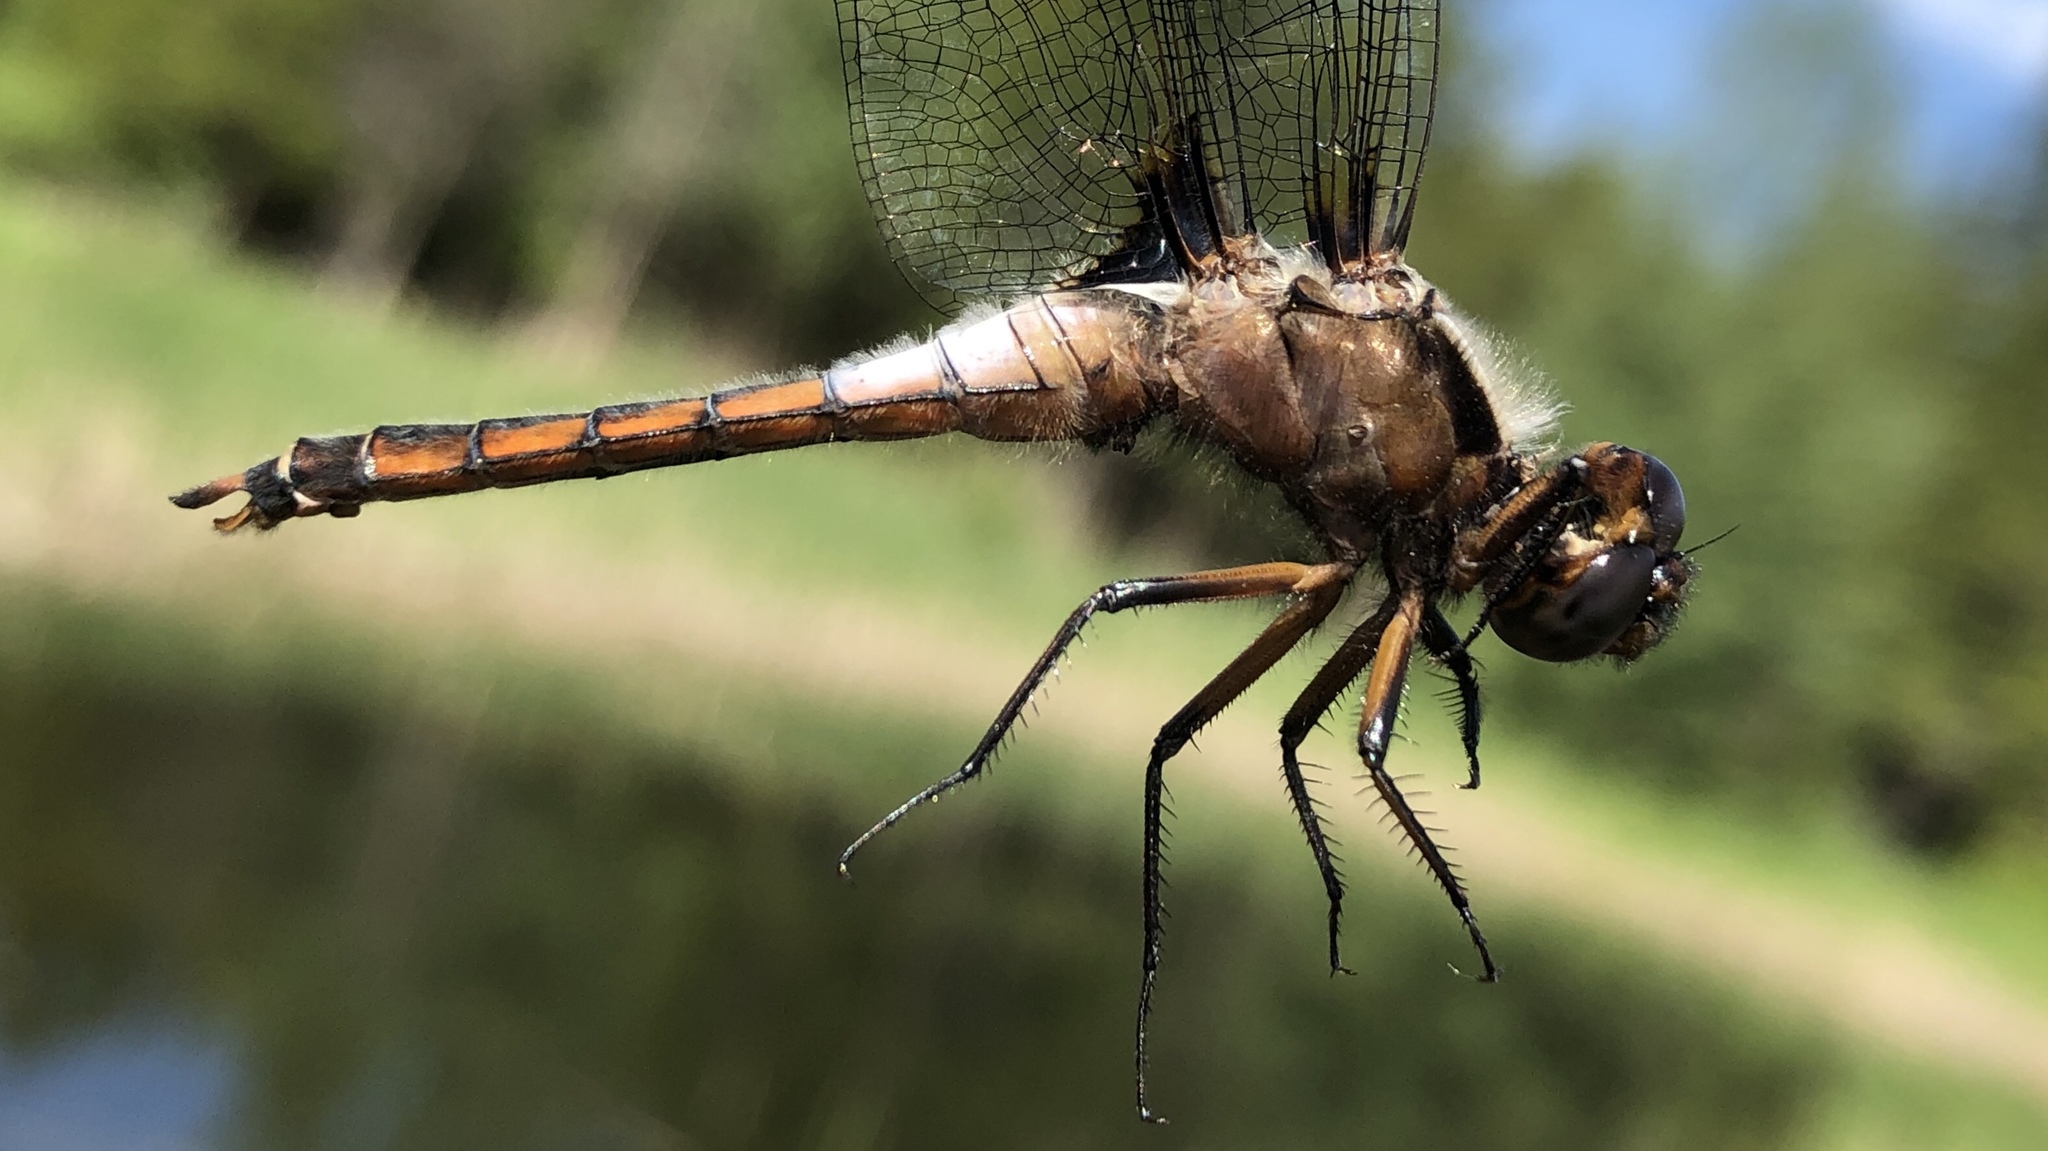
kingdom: Animalia
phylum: Arthropoda
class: Insecta
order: Odonata
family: Libellulidae
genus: Ladona
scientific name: Ladona julia
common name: Chalk-fronted corporal
